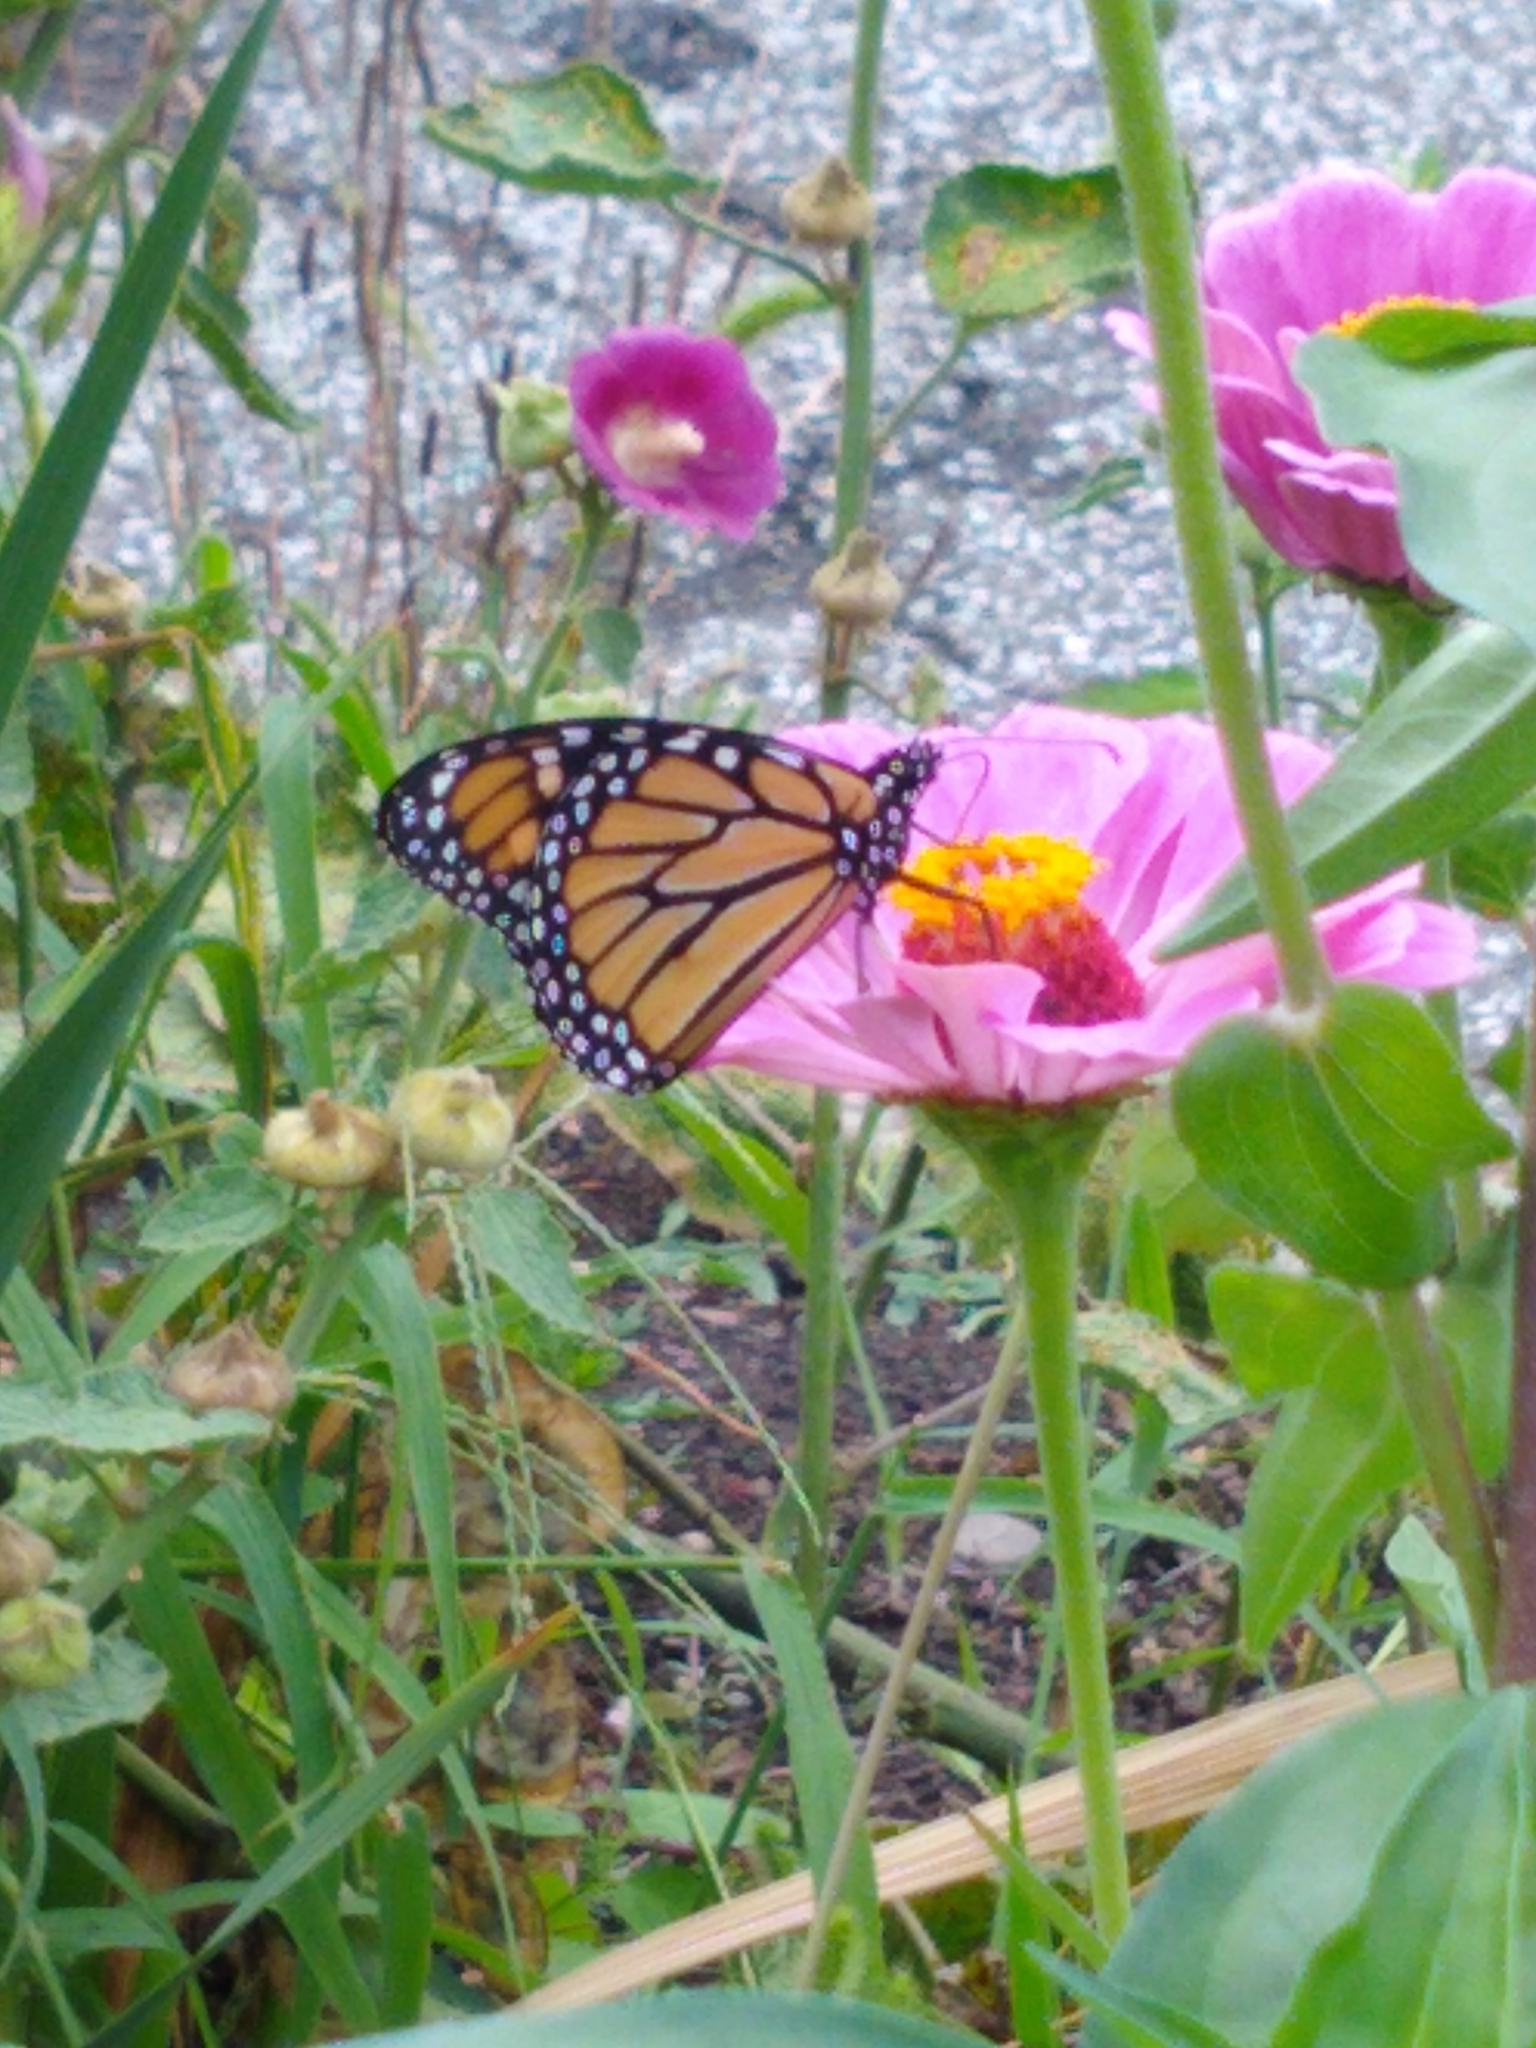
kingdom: Animalia
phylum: Arthropoda
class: Insecta
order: Lepidoptera
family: Nymphalidae
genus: Danaus
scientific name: Danaus plexippus
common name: Monarch
